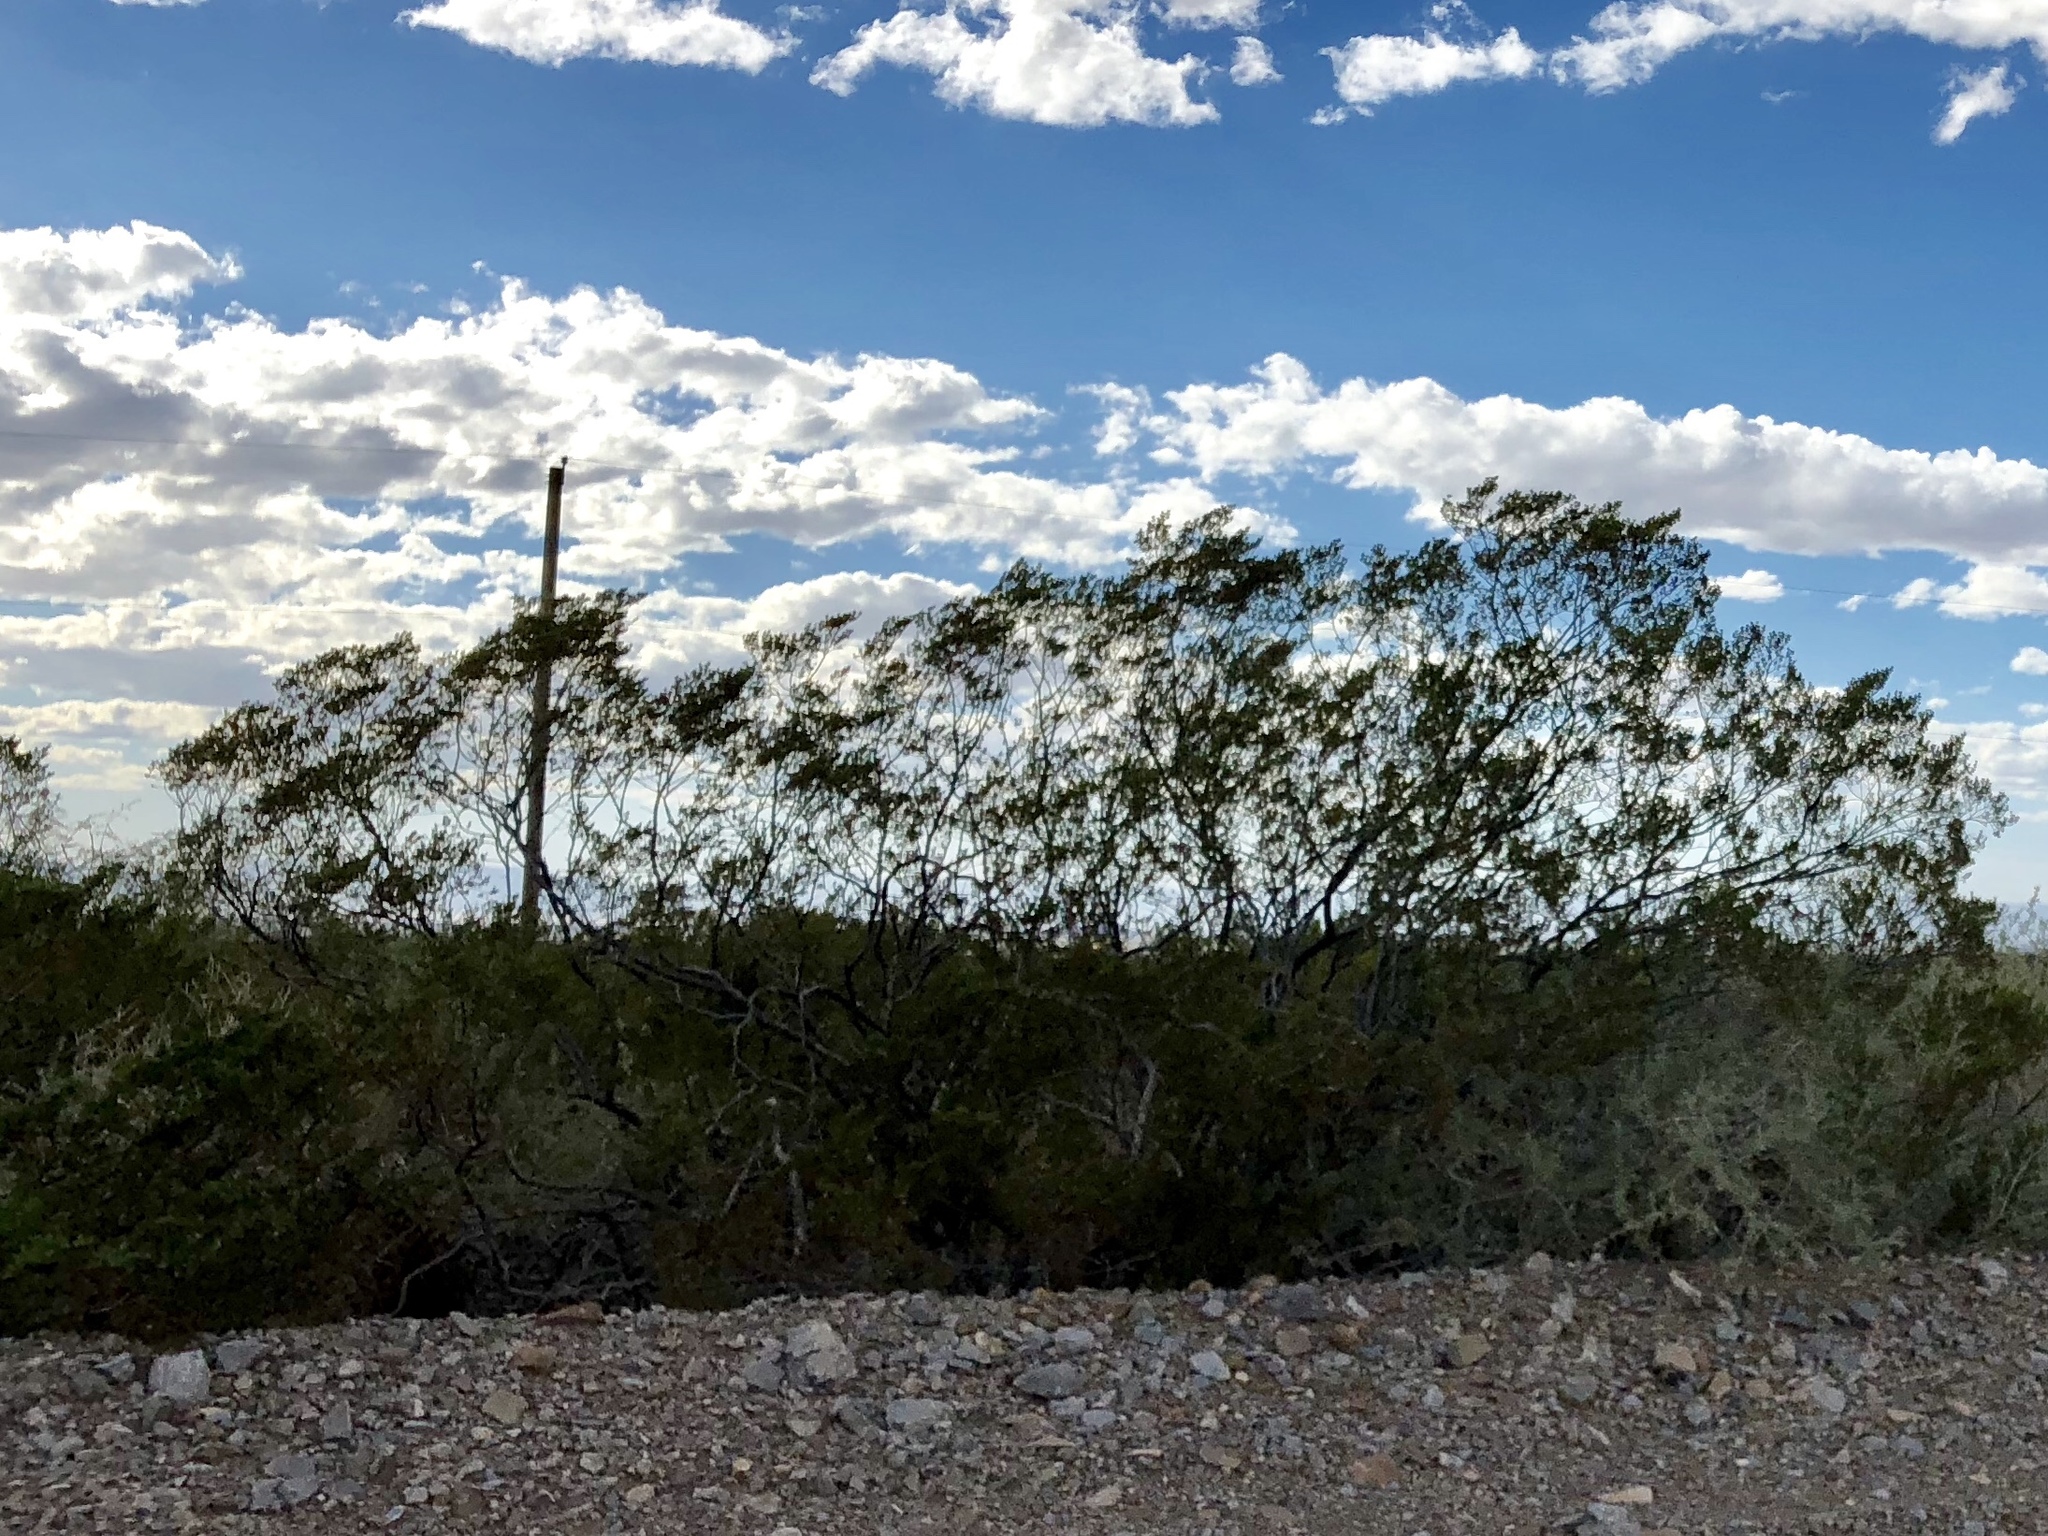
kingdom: Plantae
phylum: Tracheophyta
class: Magnoliopsida
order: Zygophyllales
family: Zygophyllaceae
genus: Larrea
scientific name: Larrea tridentata
